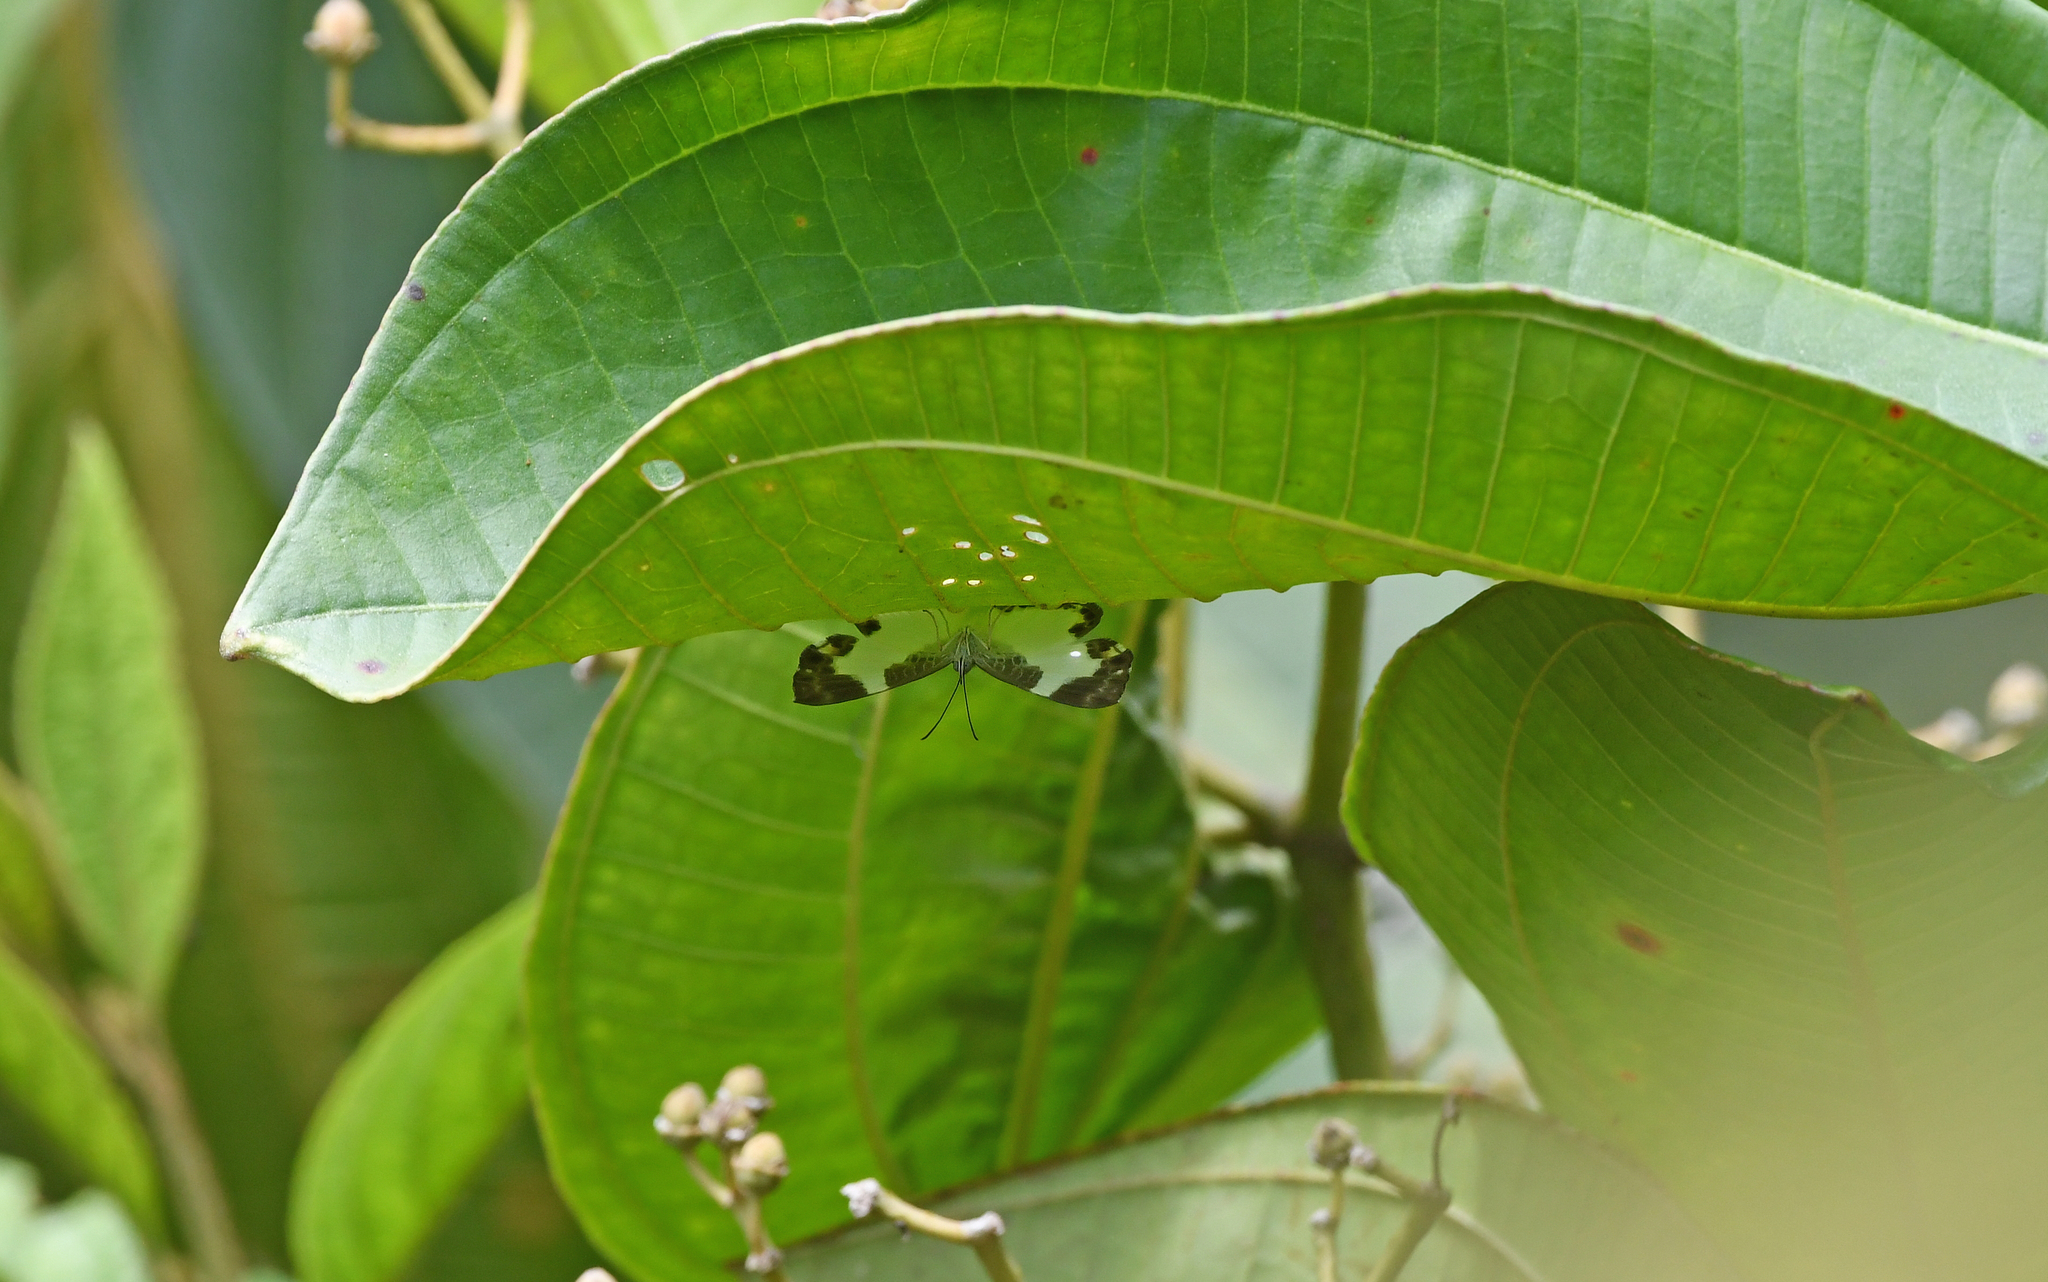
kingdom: Animalia
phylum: Arthropoda
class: Insecta
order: Lepidoptera
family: Riodinidae
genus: Juditha
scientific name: Juditha
